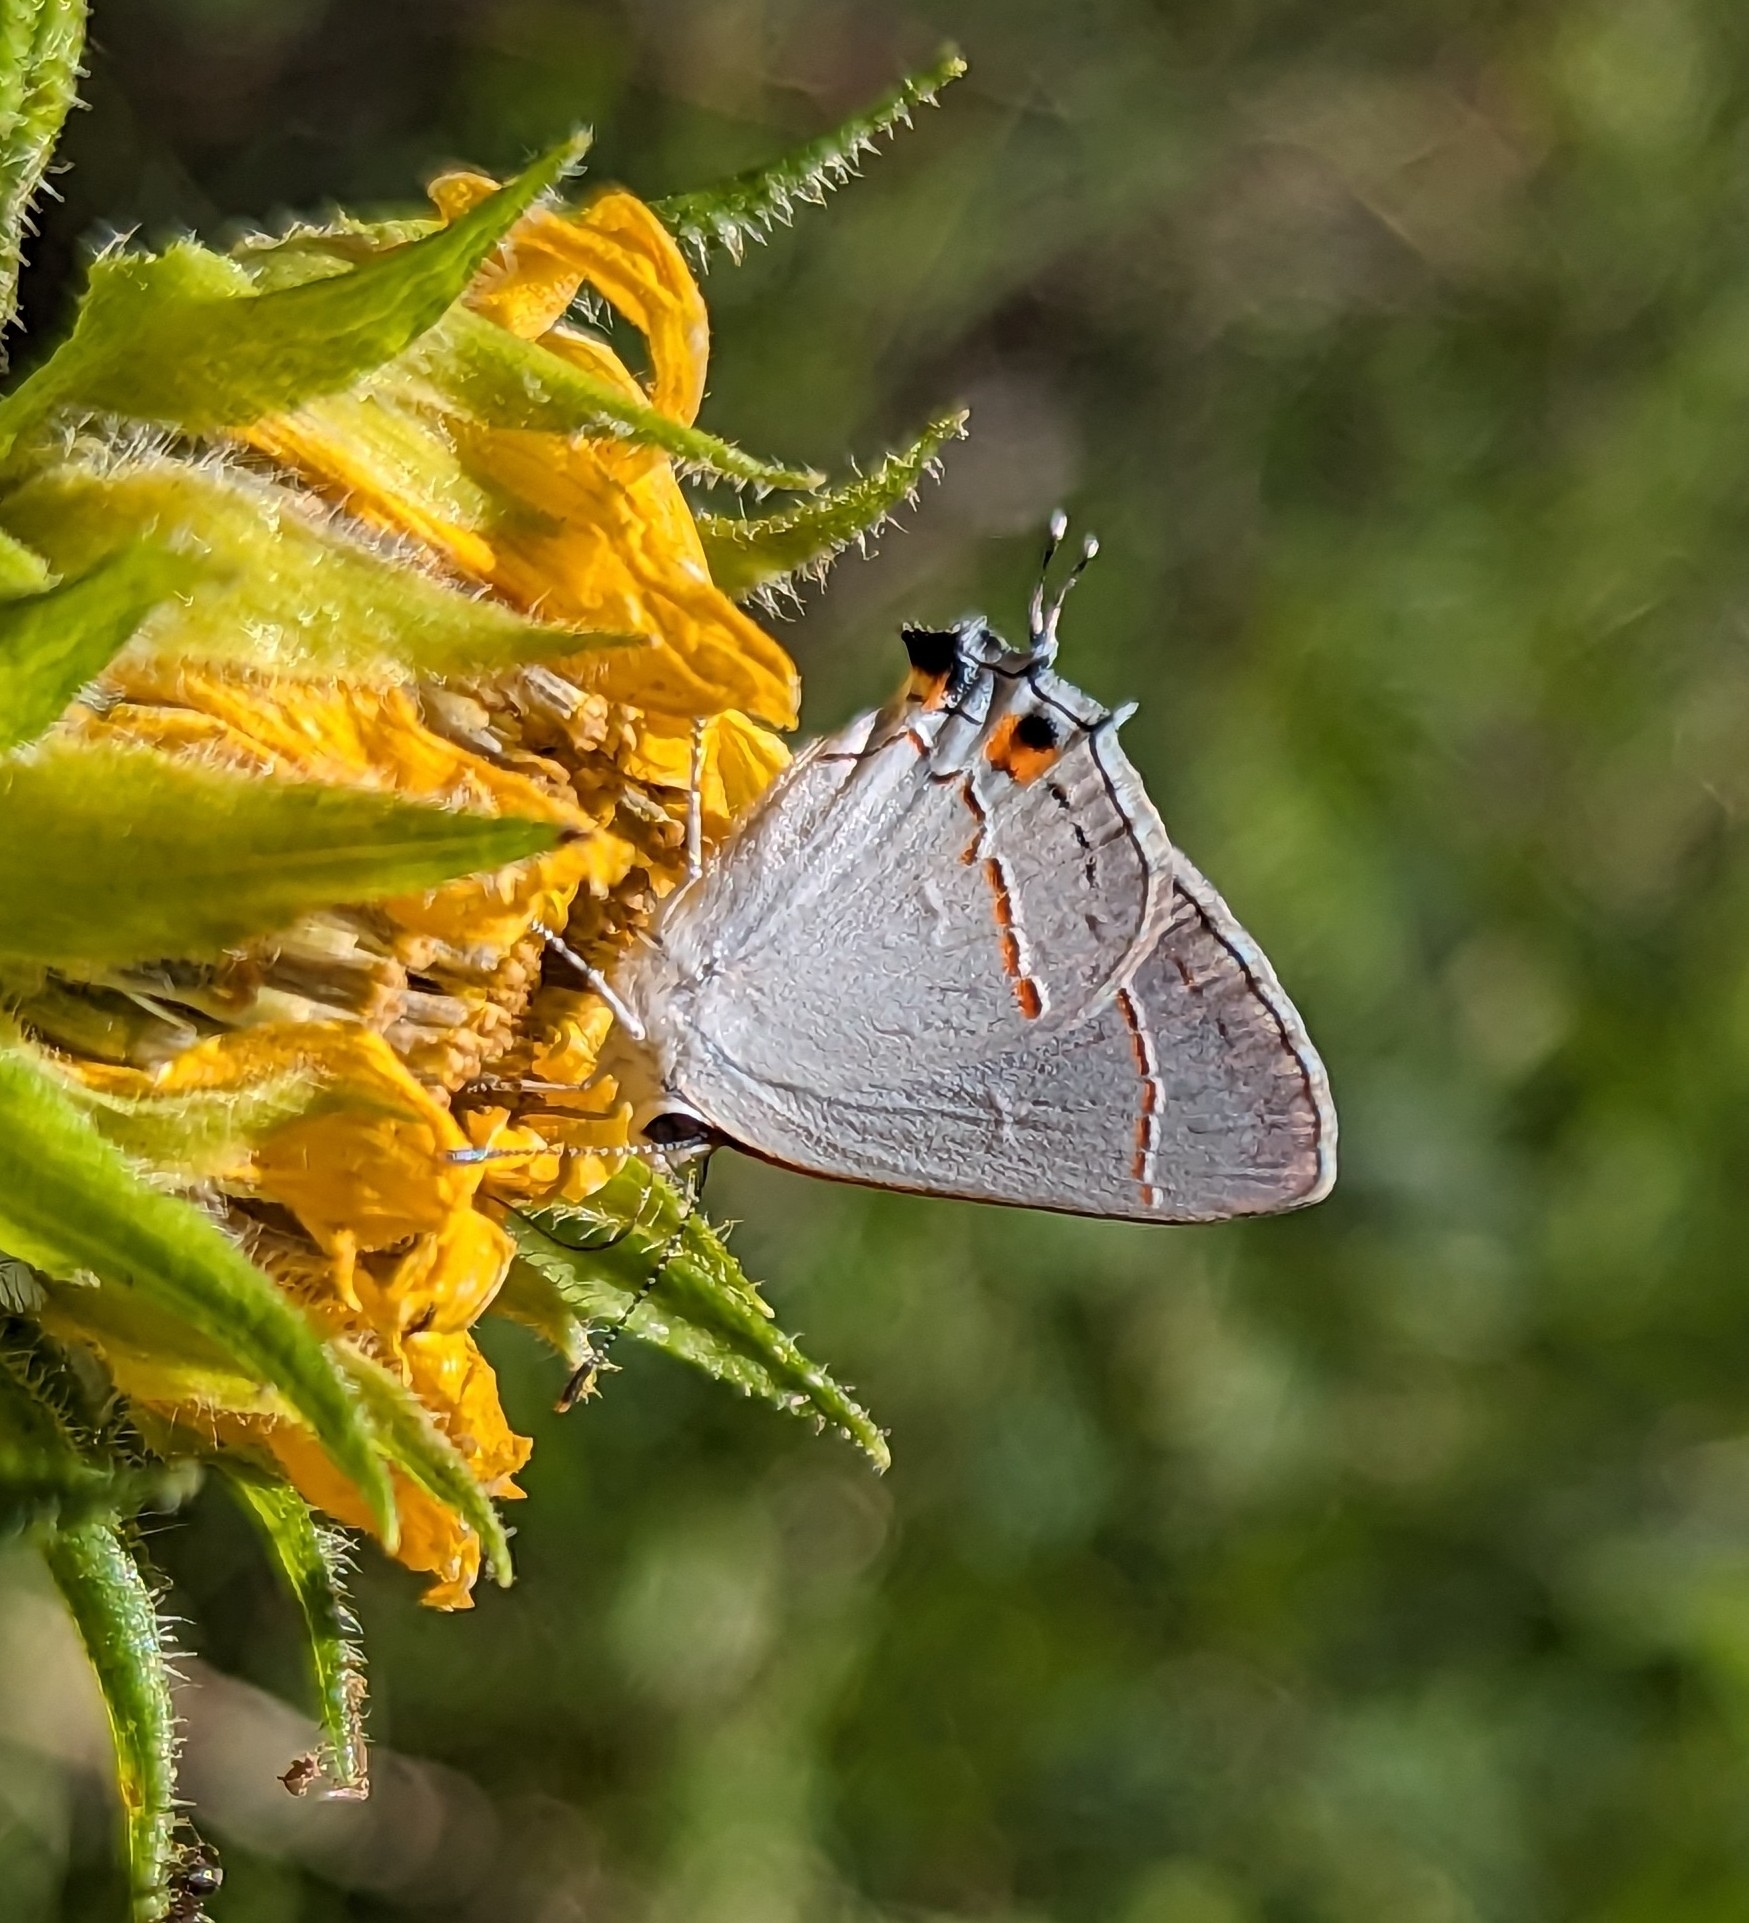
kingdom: Animalia
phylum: Arthropoda
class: Insecta
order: Lepidoptera
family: Lycaenidae
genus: Strymon
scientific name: Strymon melinus
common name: Gray hairstreak
